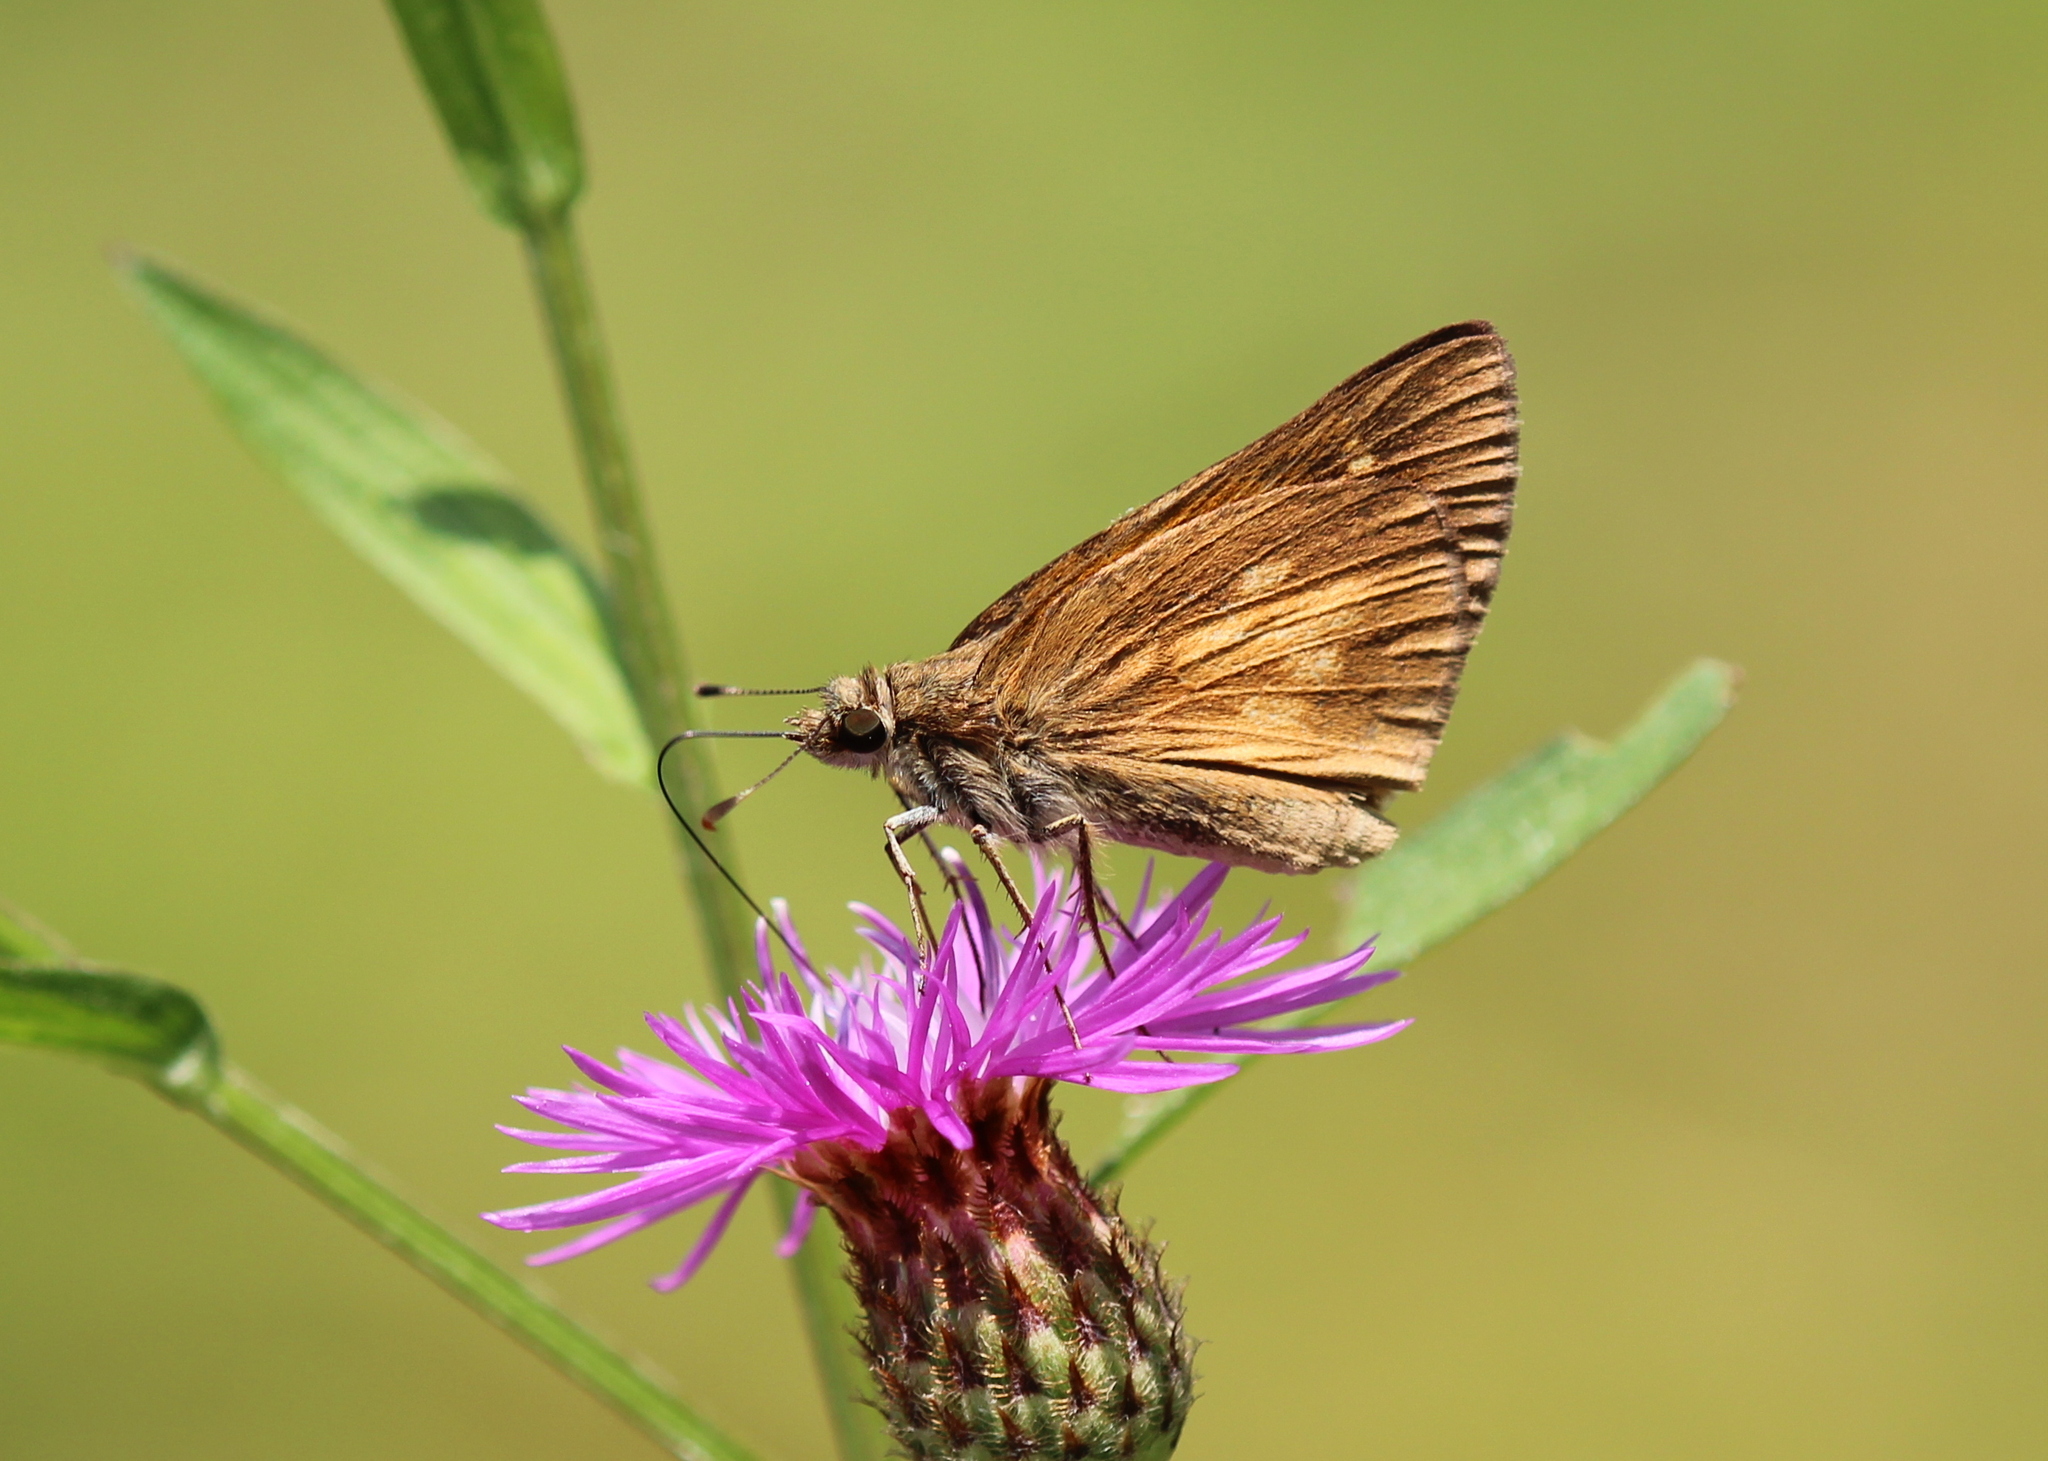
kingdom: Animalia
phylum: Arthropoda
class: Insecta
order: Lepidoptera
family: Hesperiidae
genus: Poanes
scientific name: Poanes viator
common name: Broad-winged skipper
